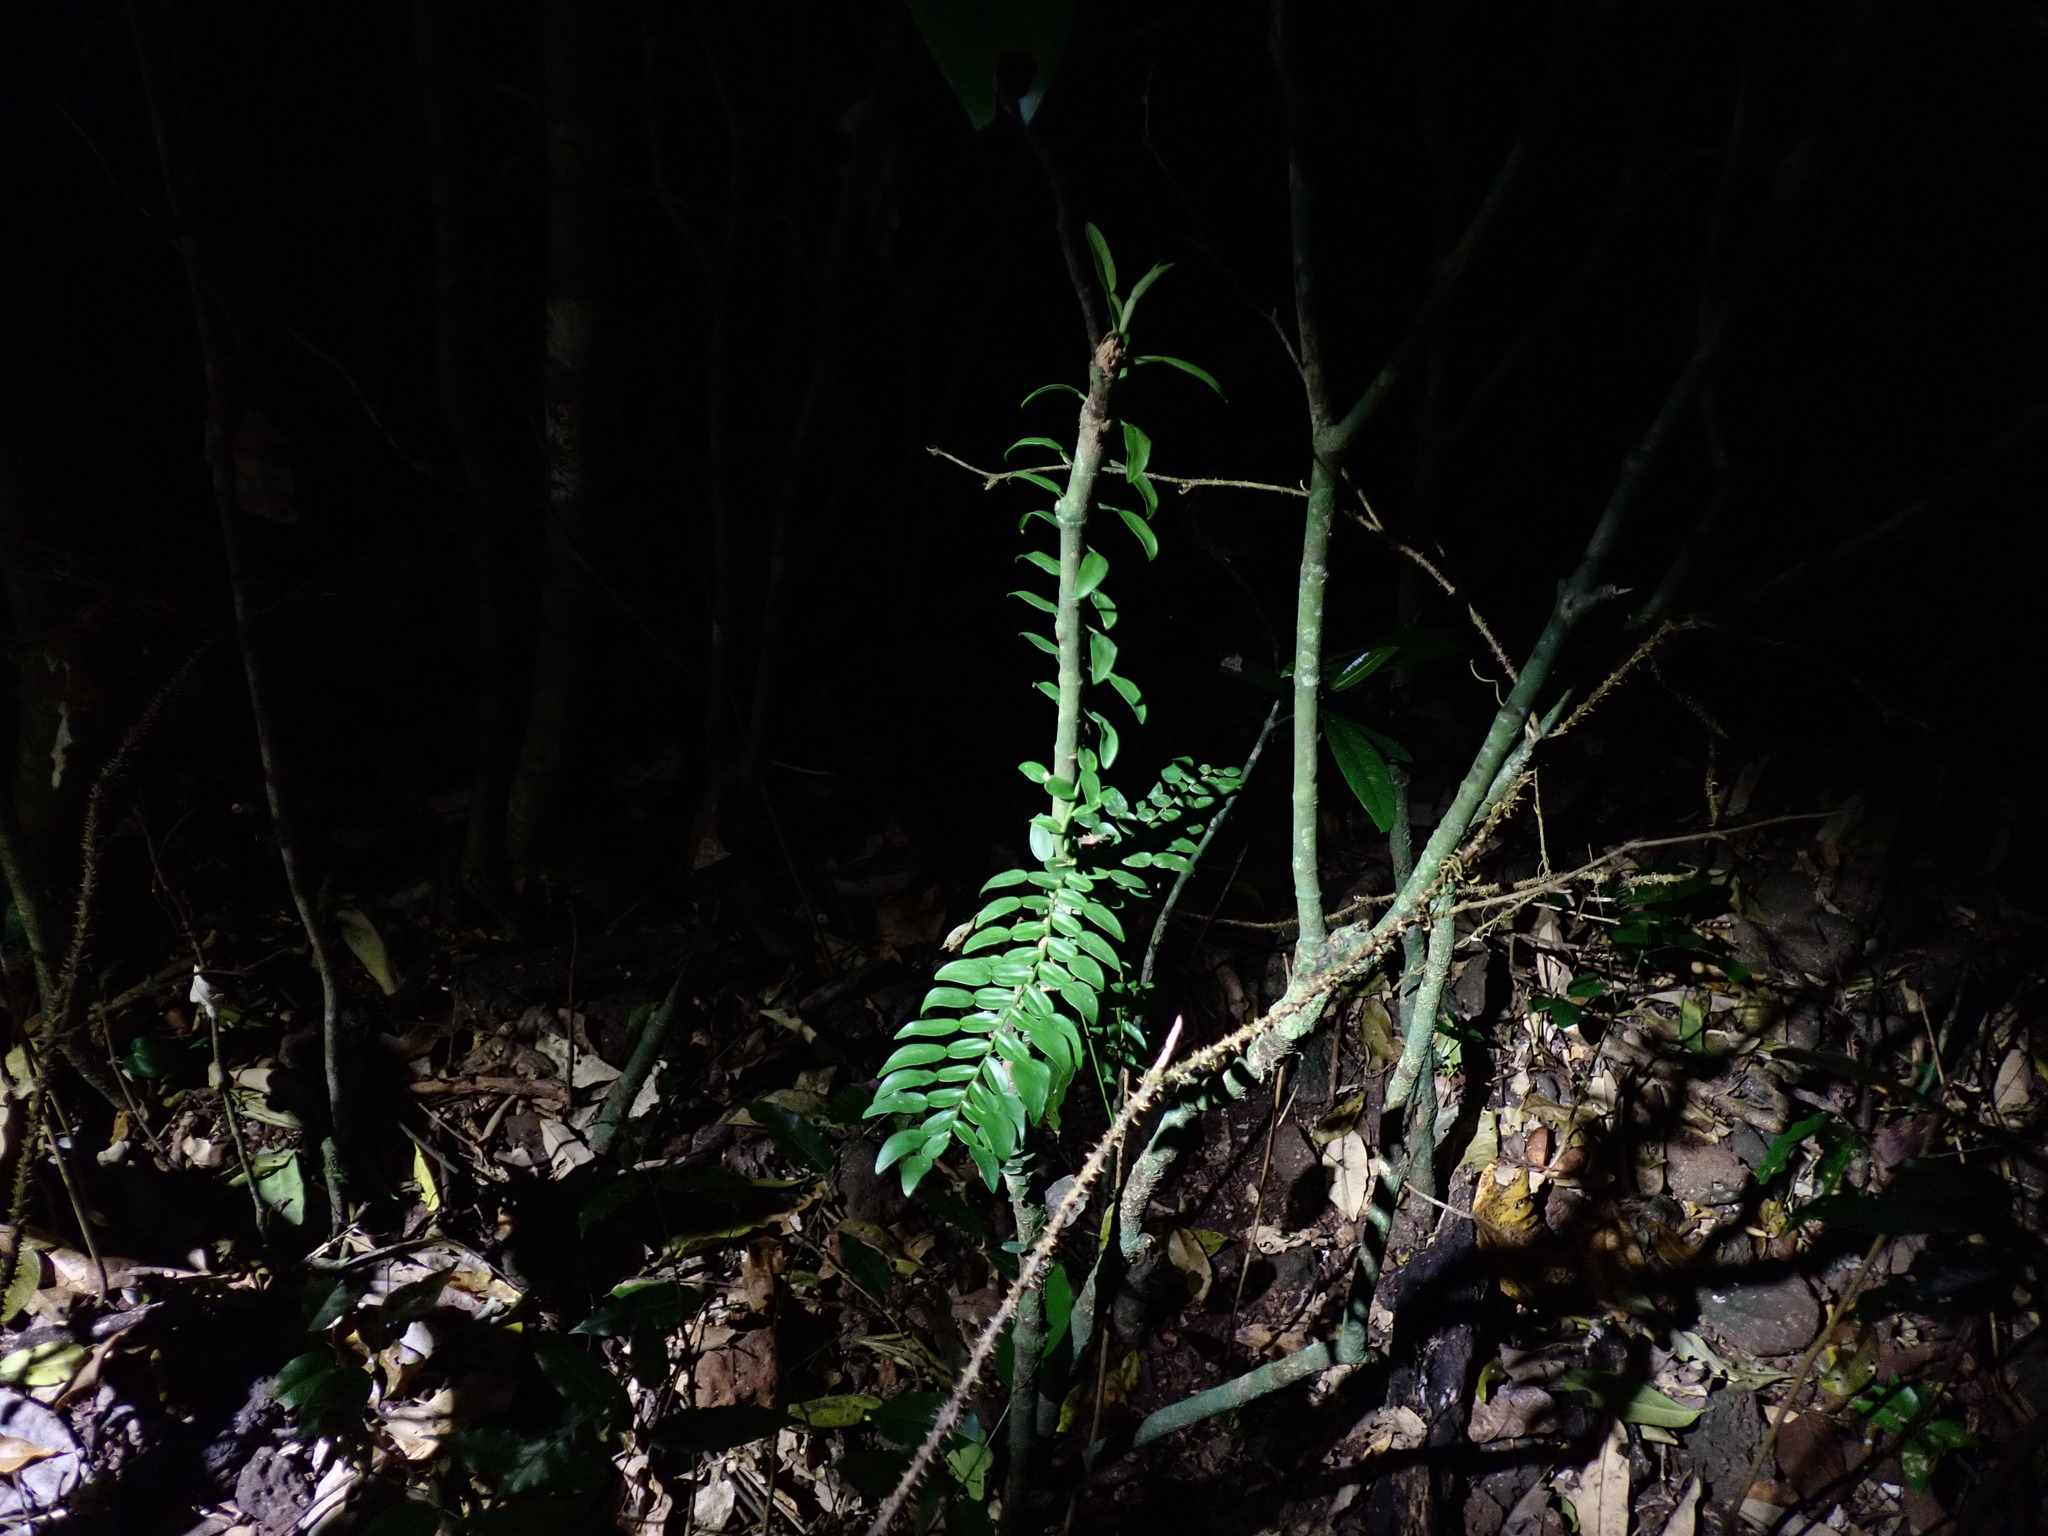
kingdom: Plantae
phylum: Tracheophyta
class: Liliopsida
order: Alismatales
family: Araceae
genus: Pothos
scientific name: Pothos longipes
